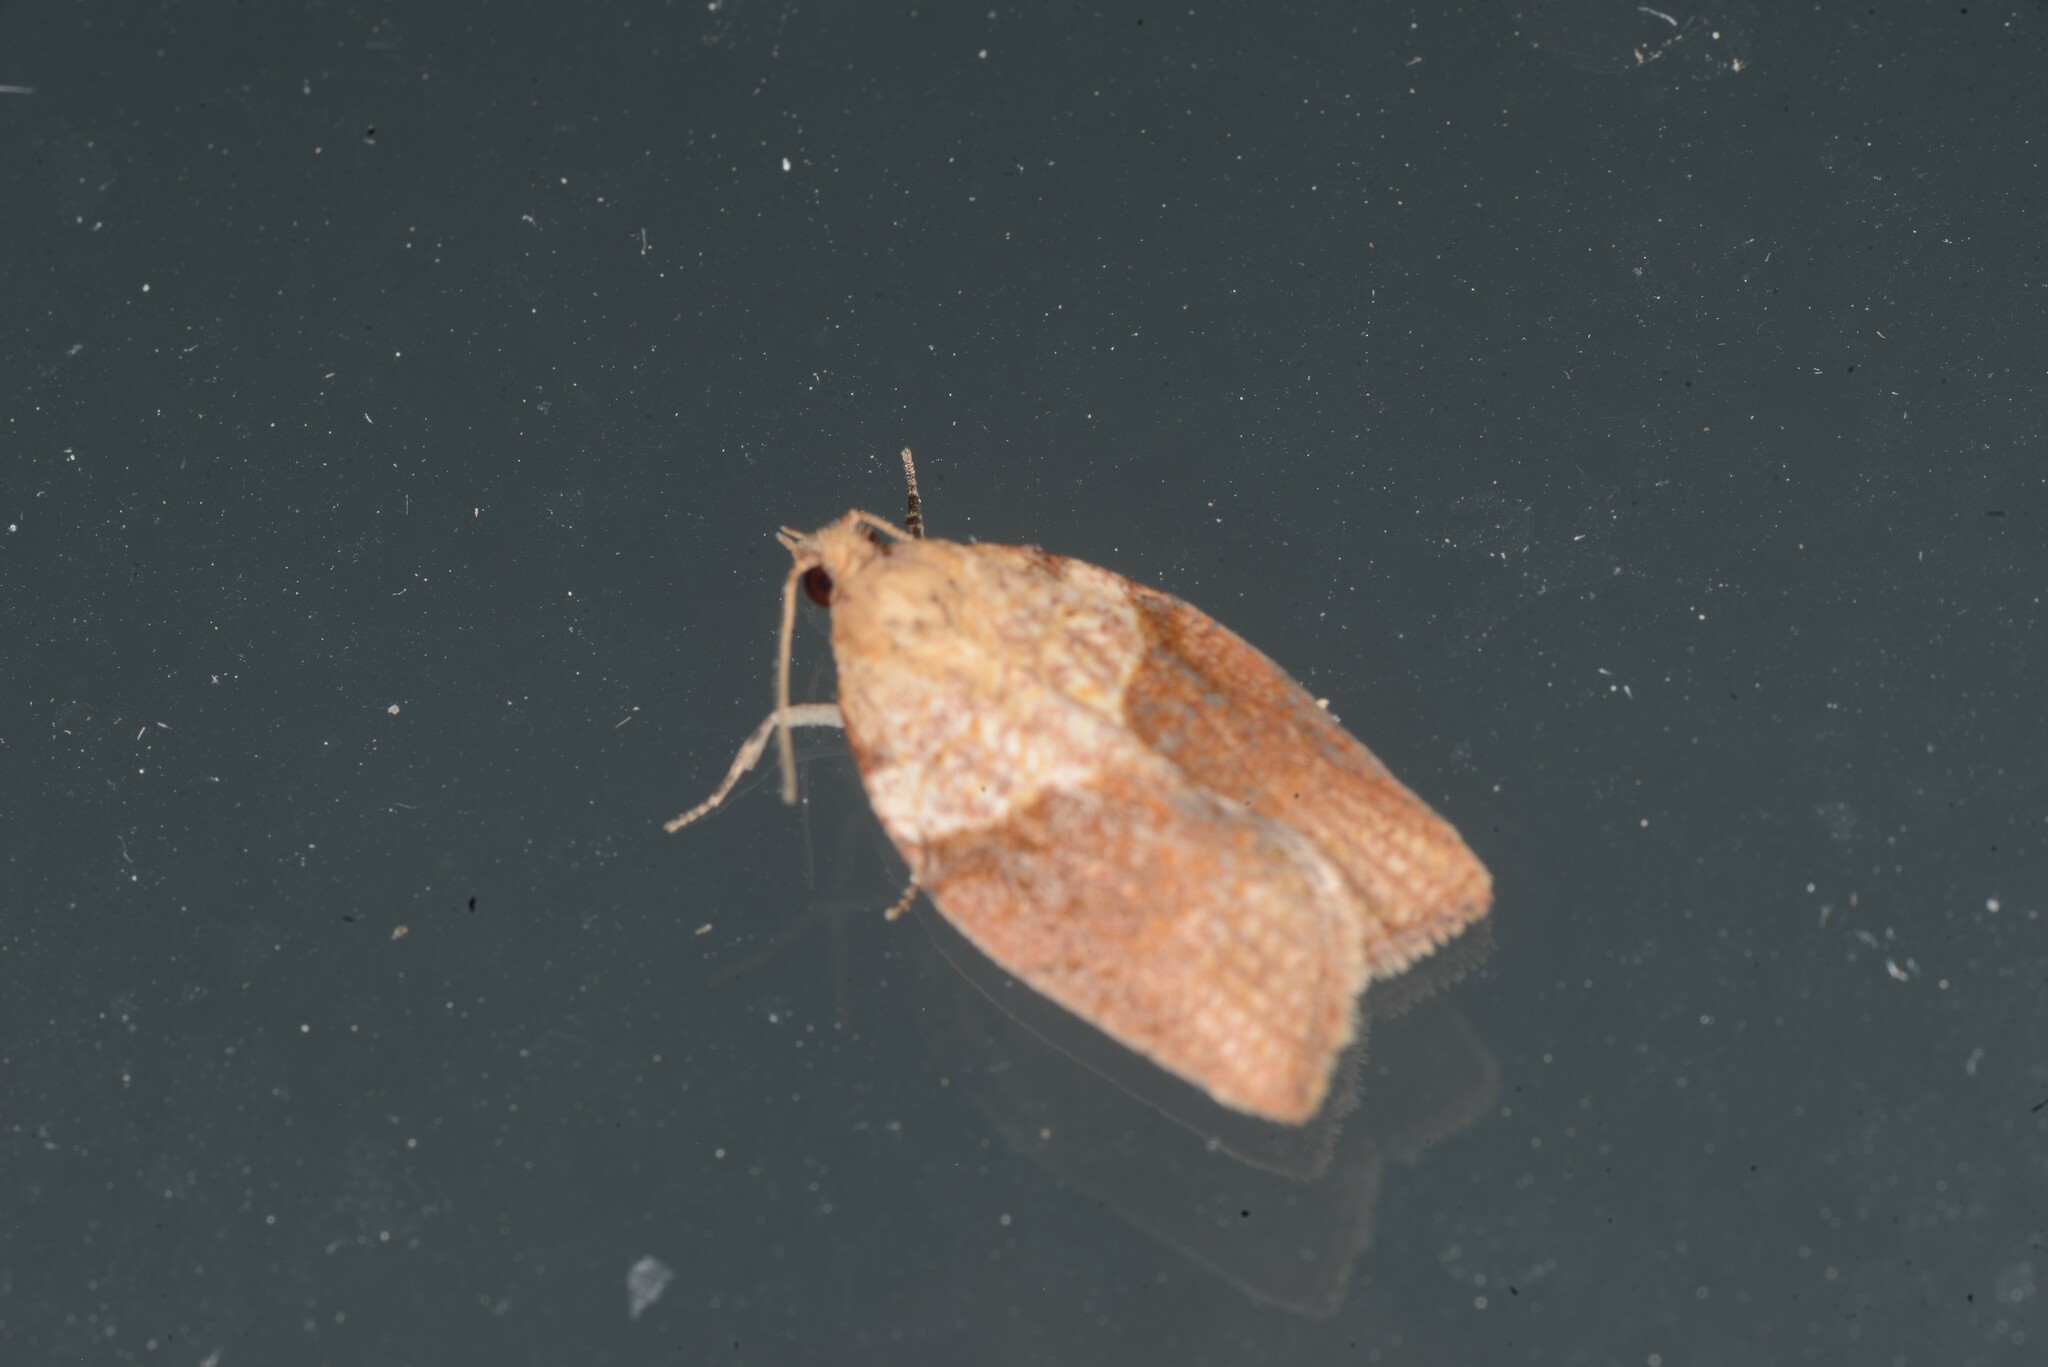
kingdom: Animalia
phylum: Arthropoda
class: Insecta
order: Lepidoptera
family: Tortricidae
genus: Epiphyas
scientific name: Epiphyas postvittana
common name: Light brown apple moth
